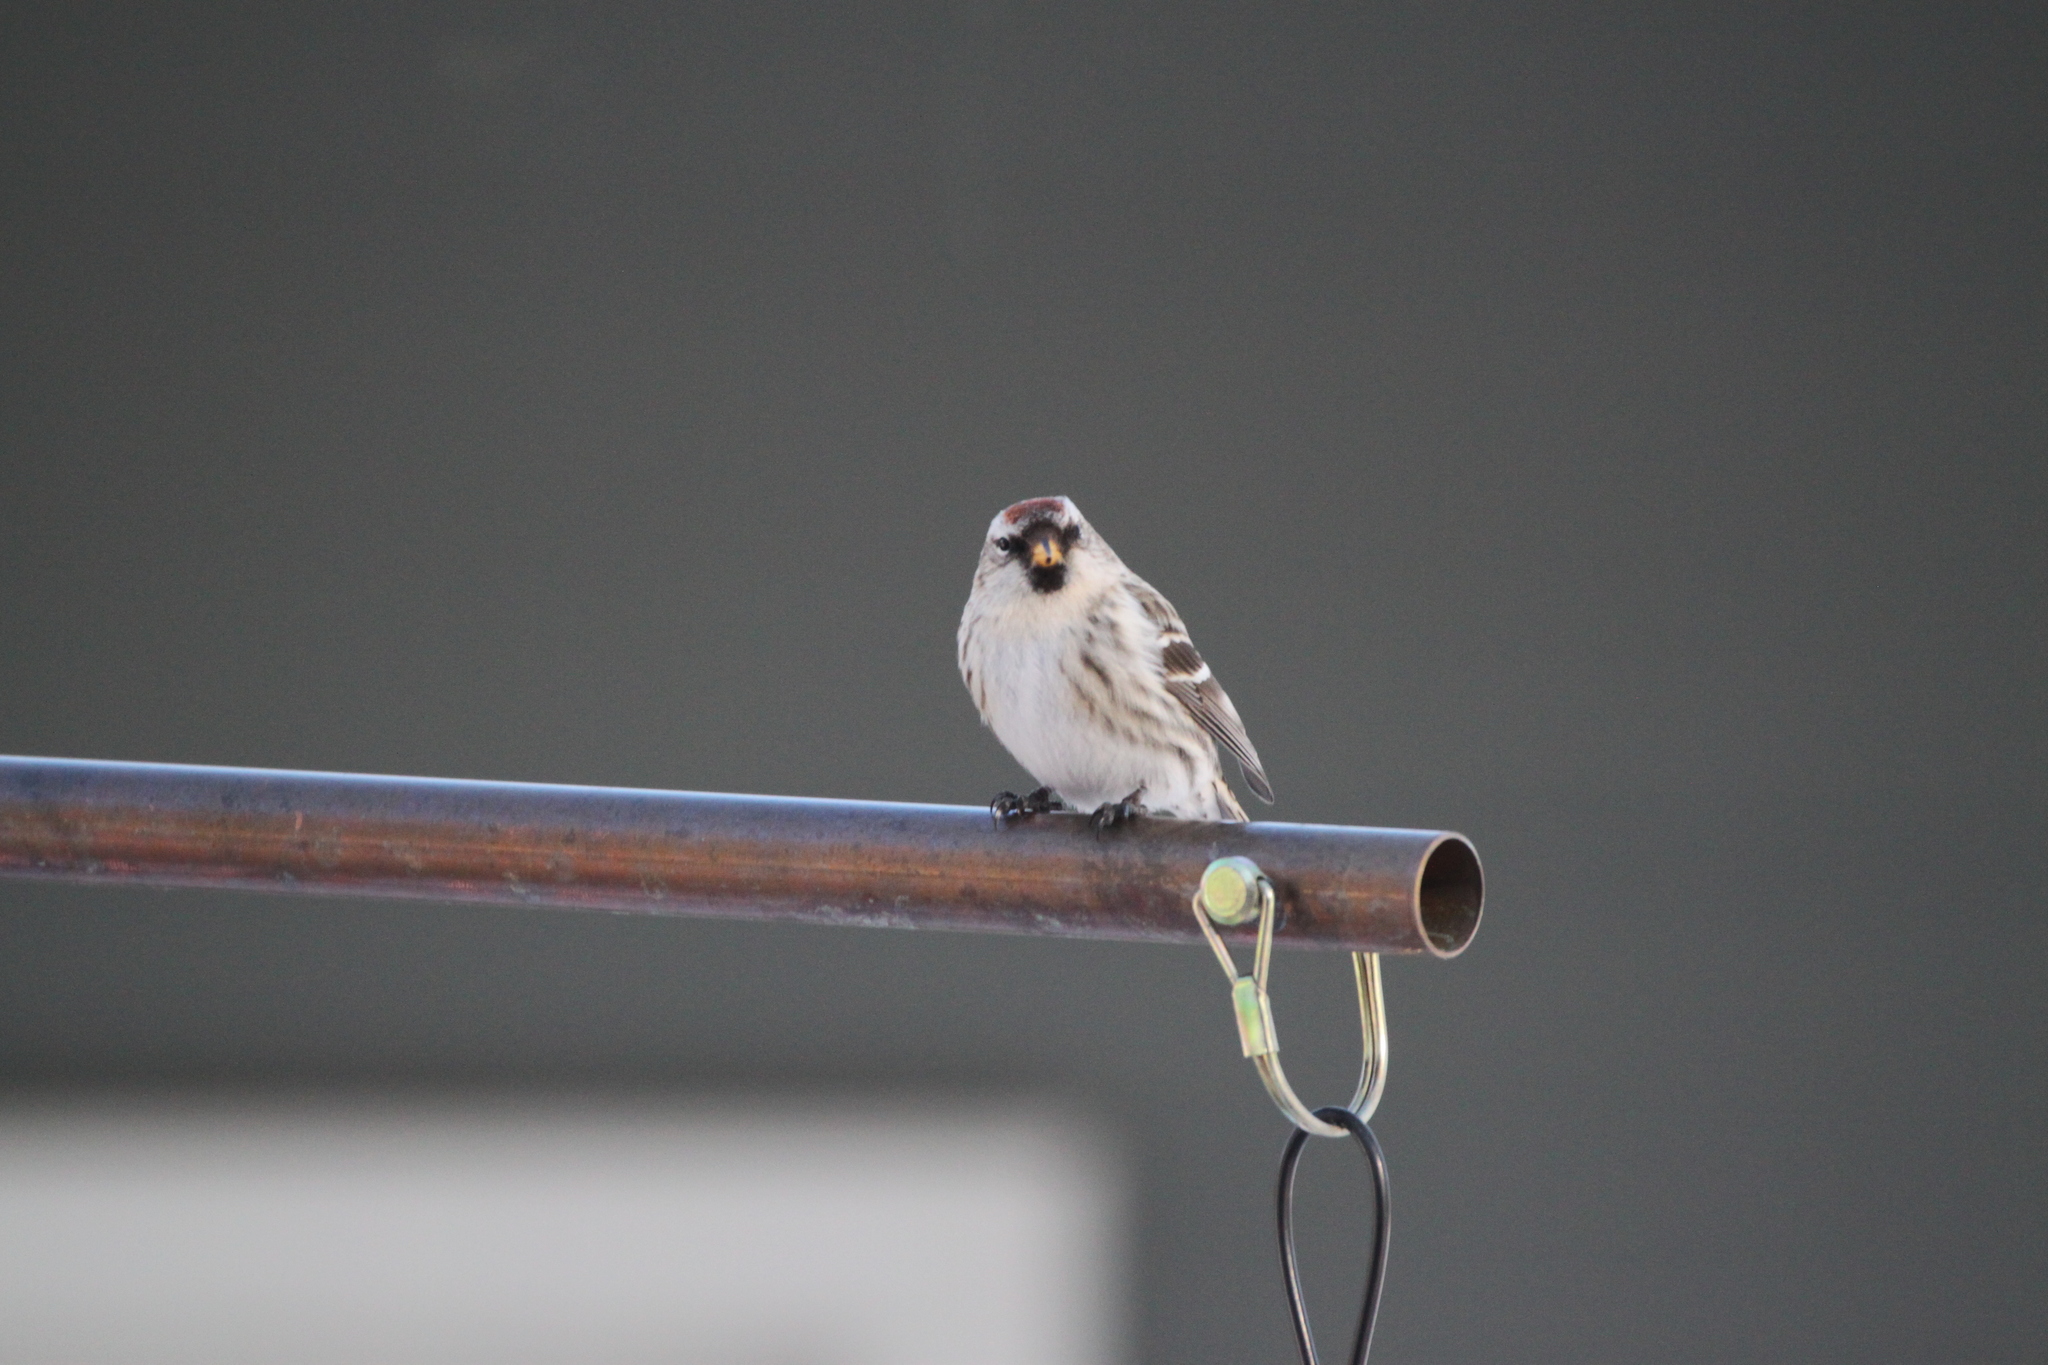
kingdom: Animalia
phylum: Chordata
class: Aves
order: Passeriformes
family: Fringillidae
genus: Acanthis
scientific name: Acanthis flammea
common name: Common redpoll
